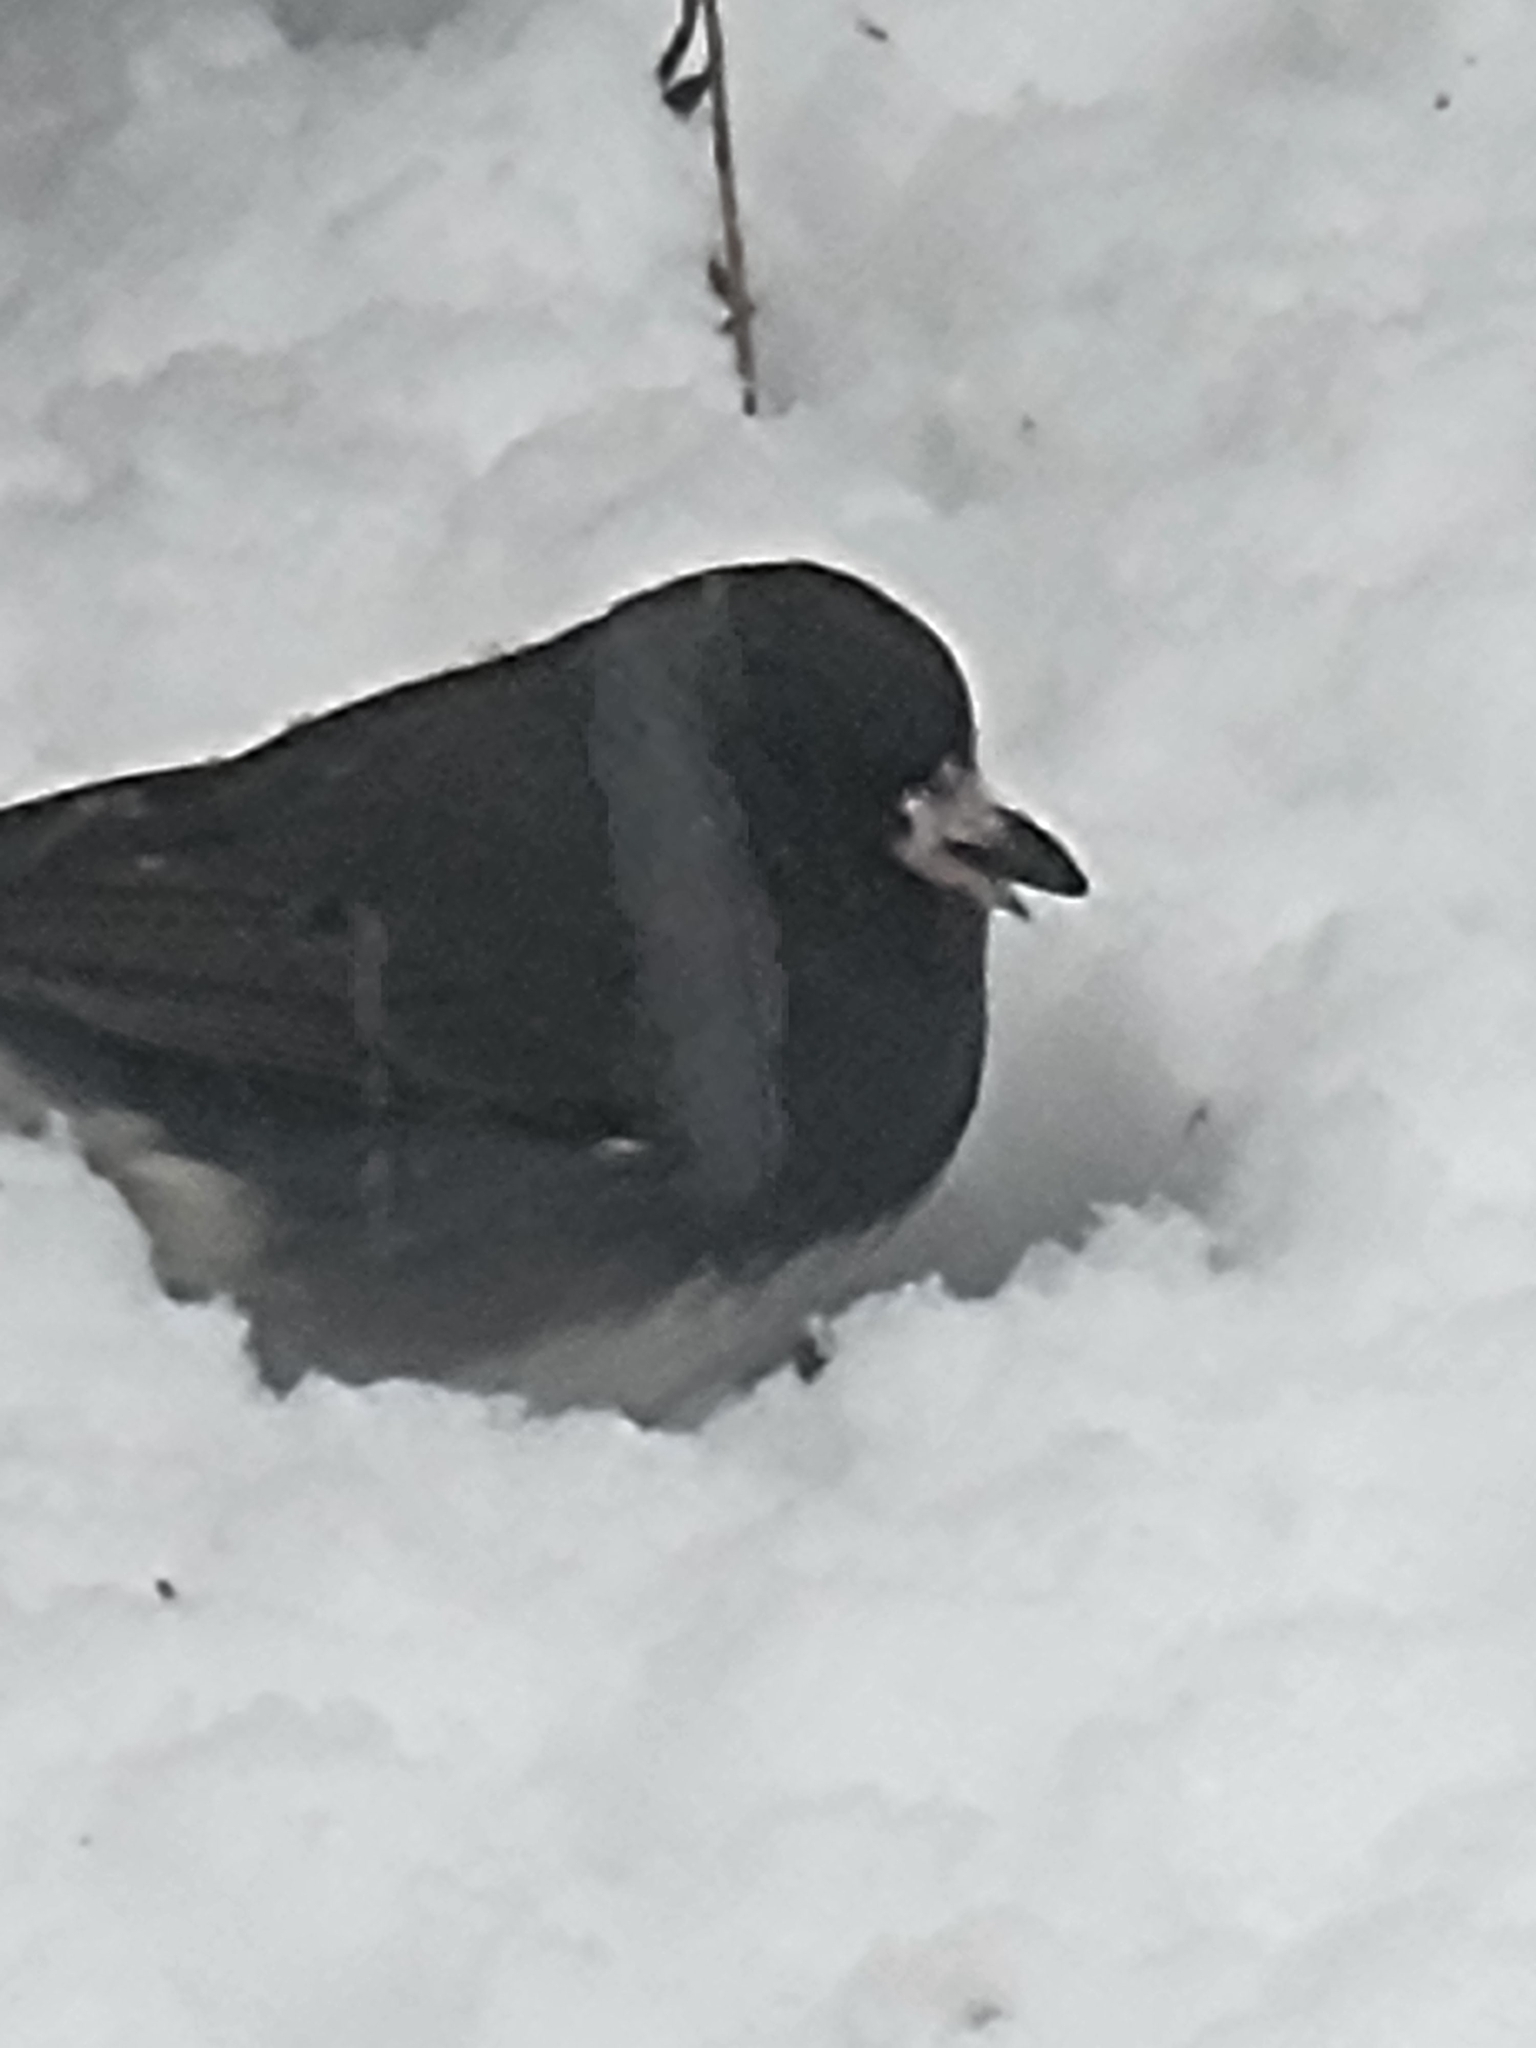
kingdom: Animalia
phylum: Chordata
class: Aves
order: Passeriformes
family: Passerellidae
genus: Junco
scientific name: Junco hyemalis
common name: Dark-eyed junco
